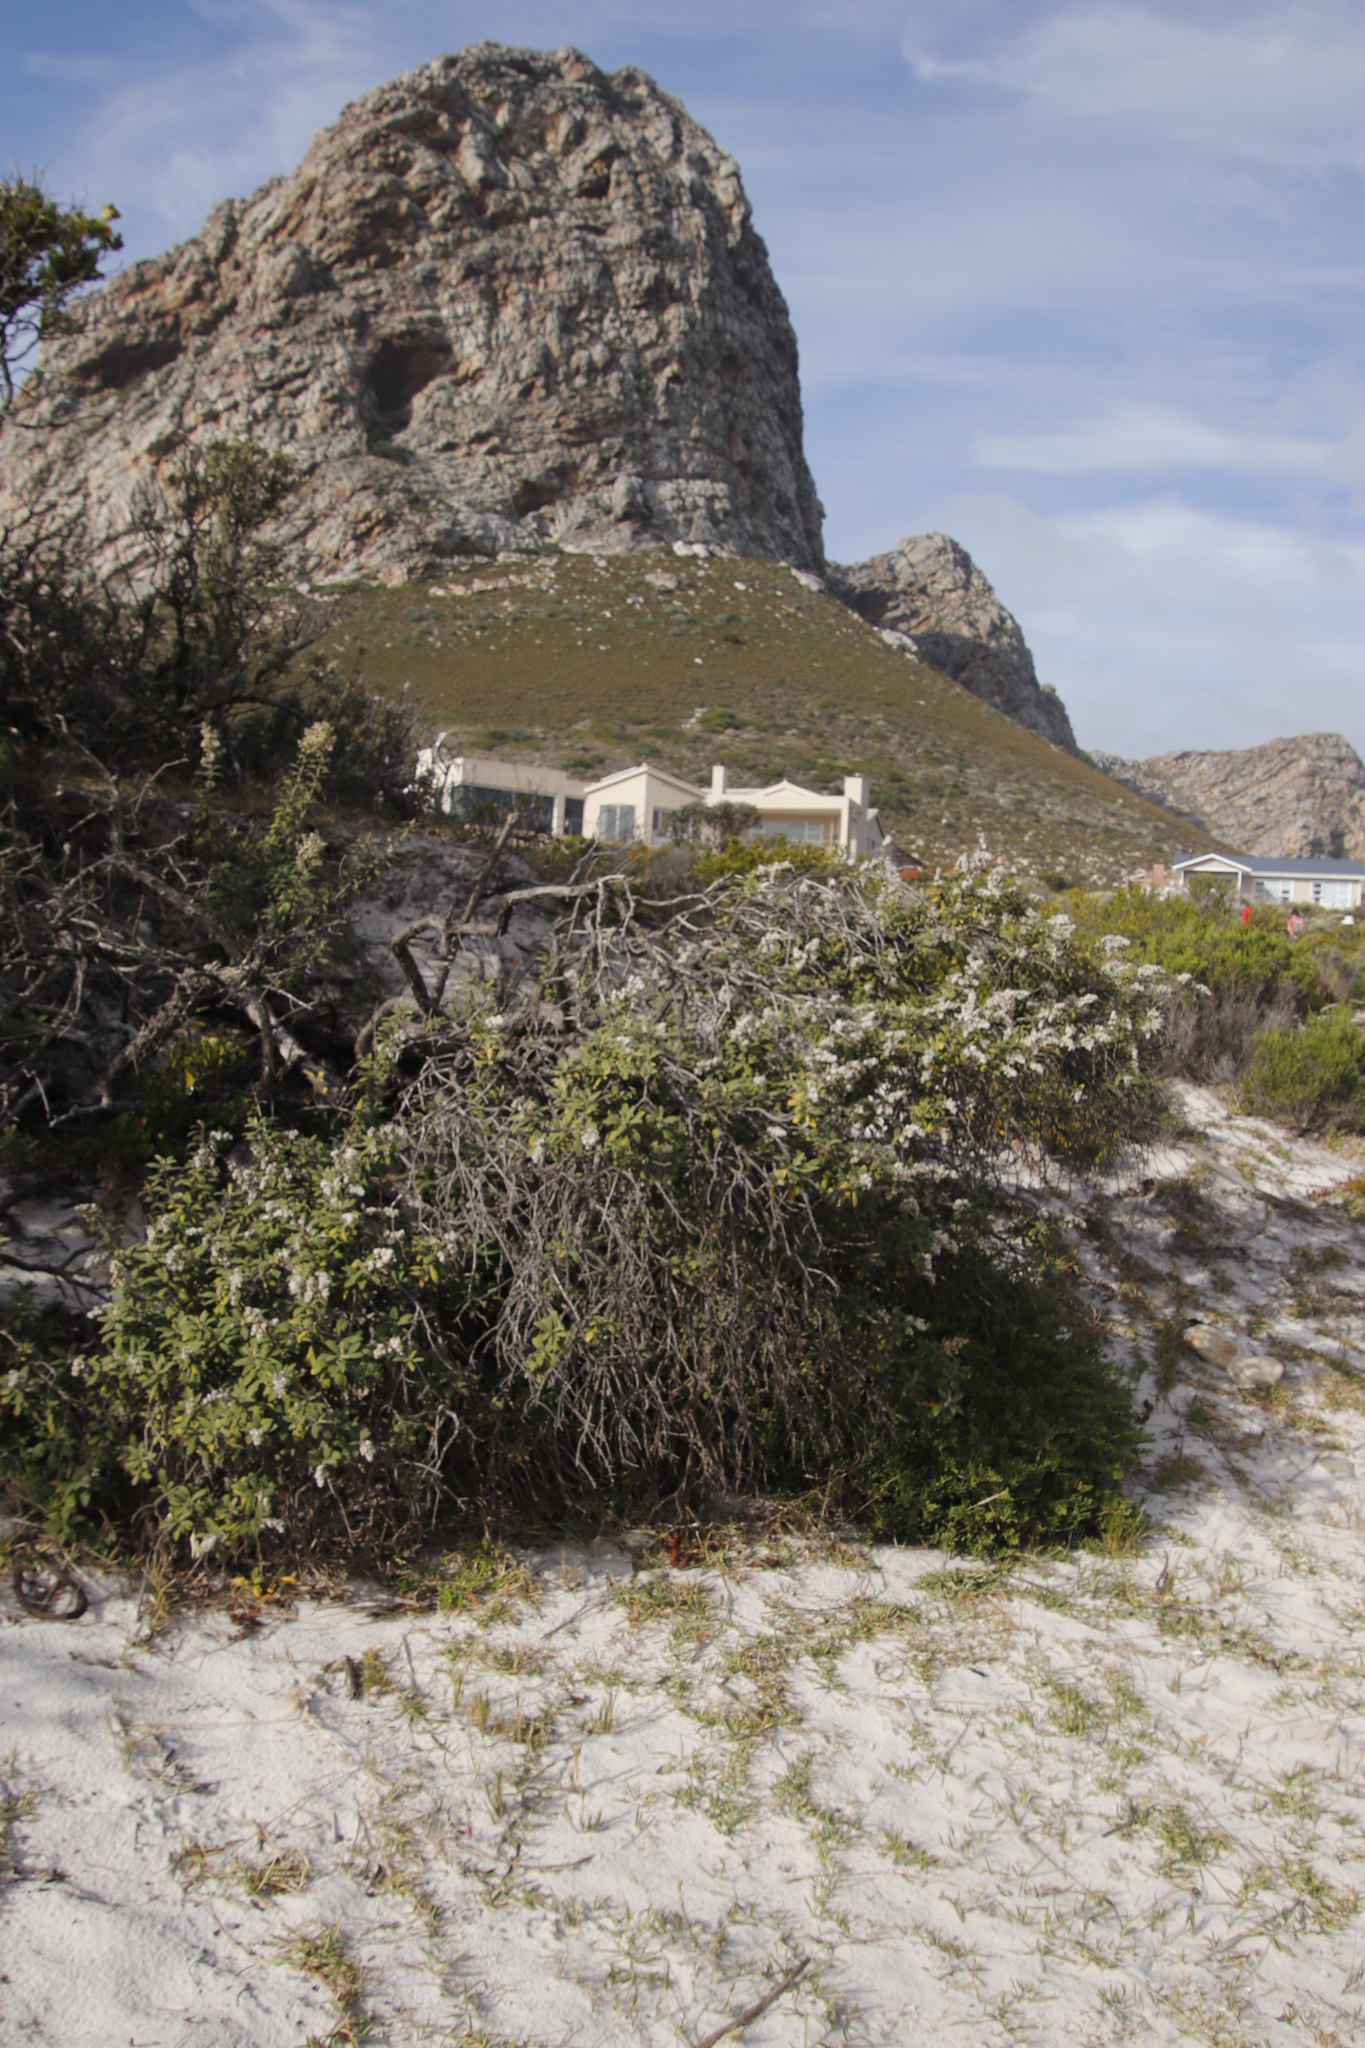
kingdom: Plantae
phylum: Tracheophyta
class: Magnoliopsida
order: Asterales
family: Asteraceae
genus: Tarchonanthus
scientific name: Tarchonanthus littoralis
